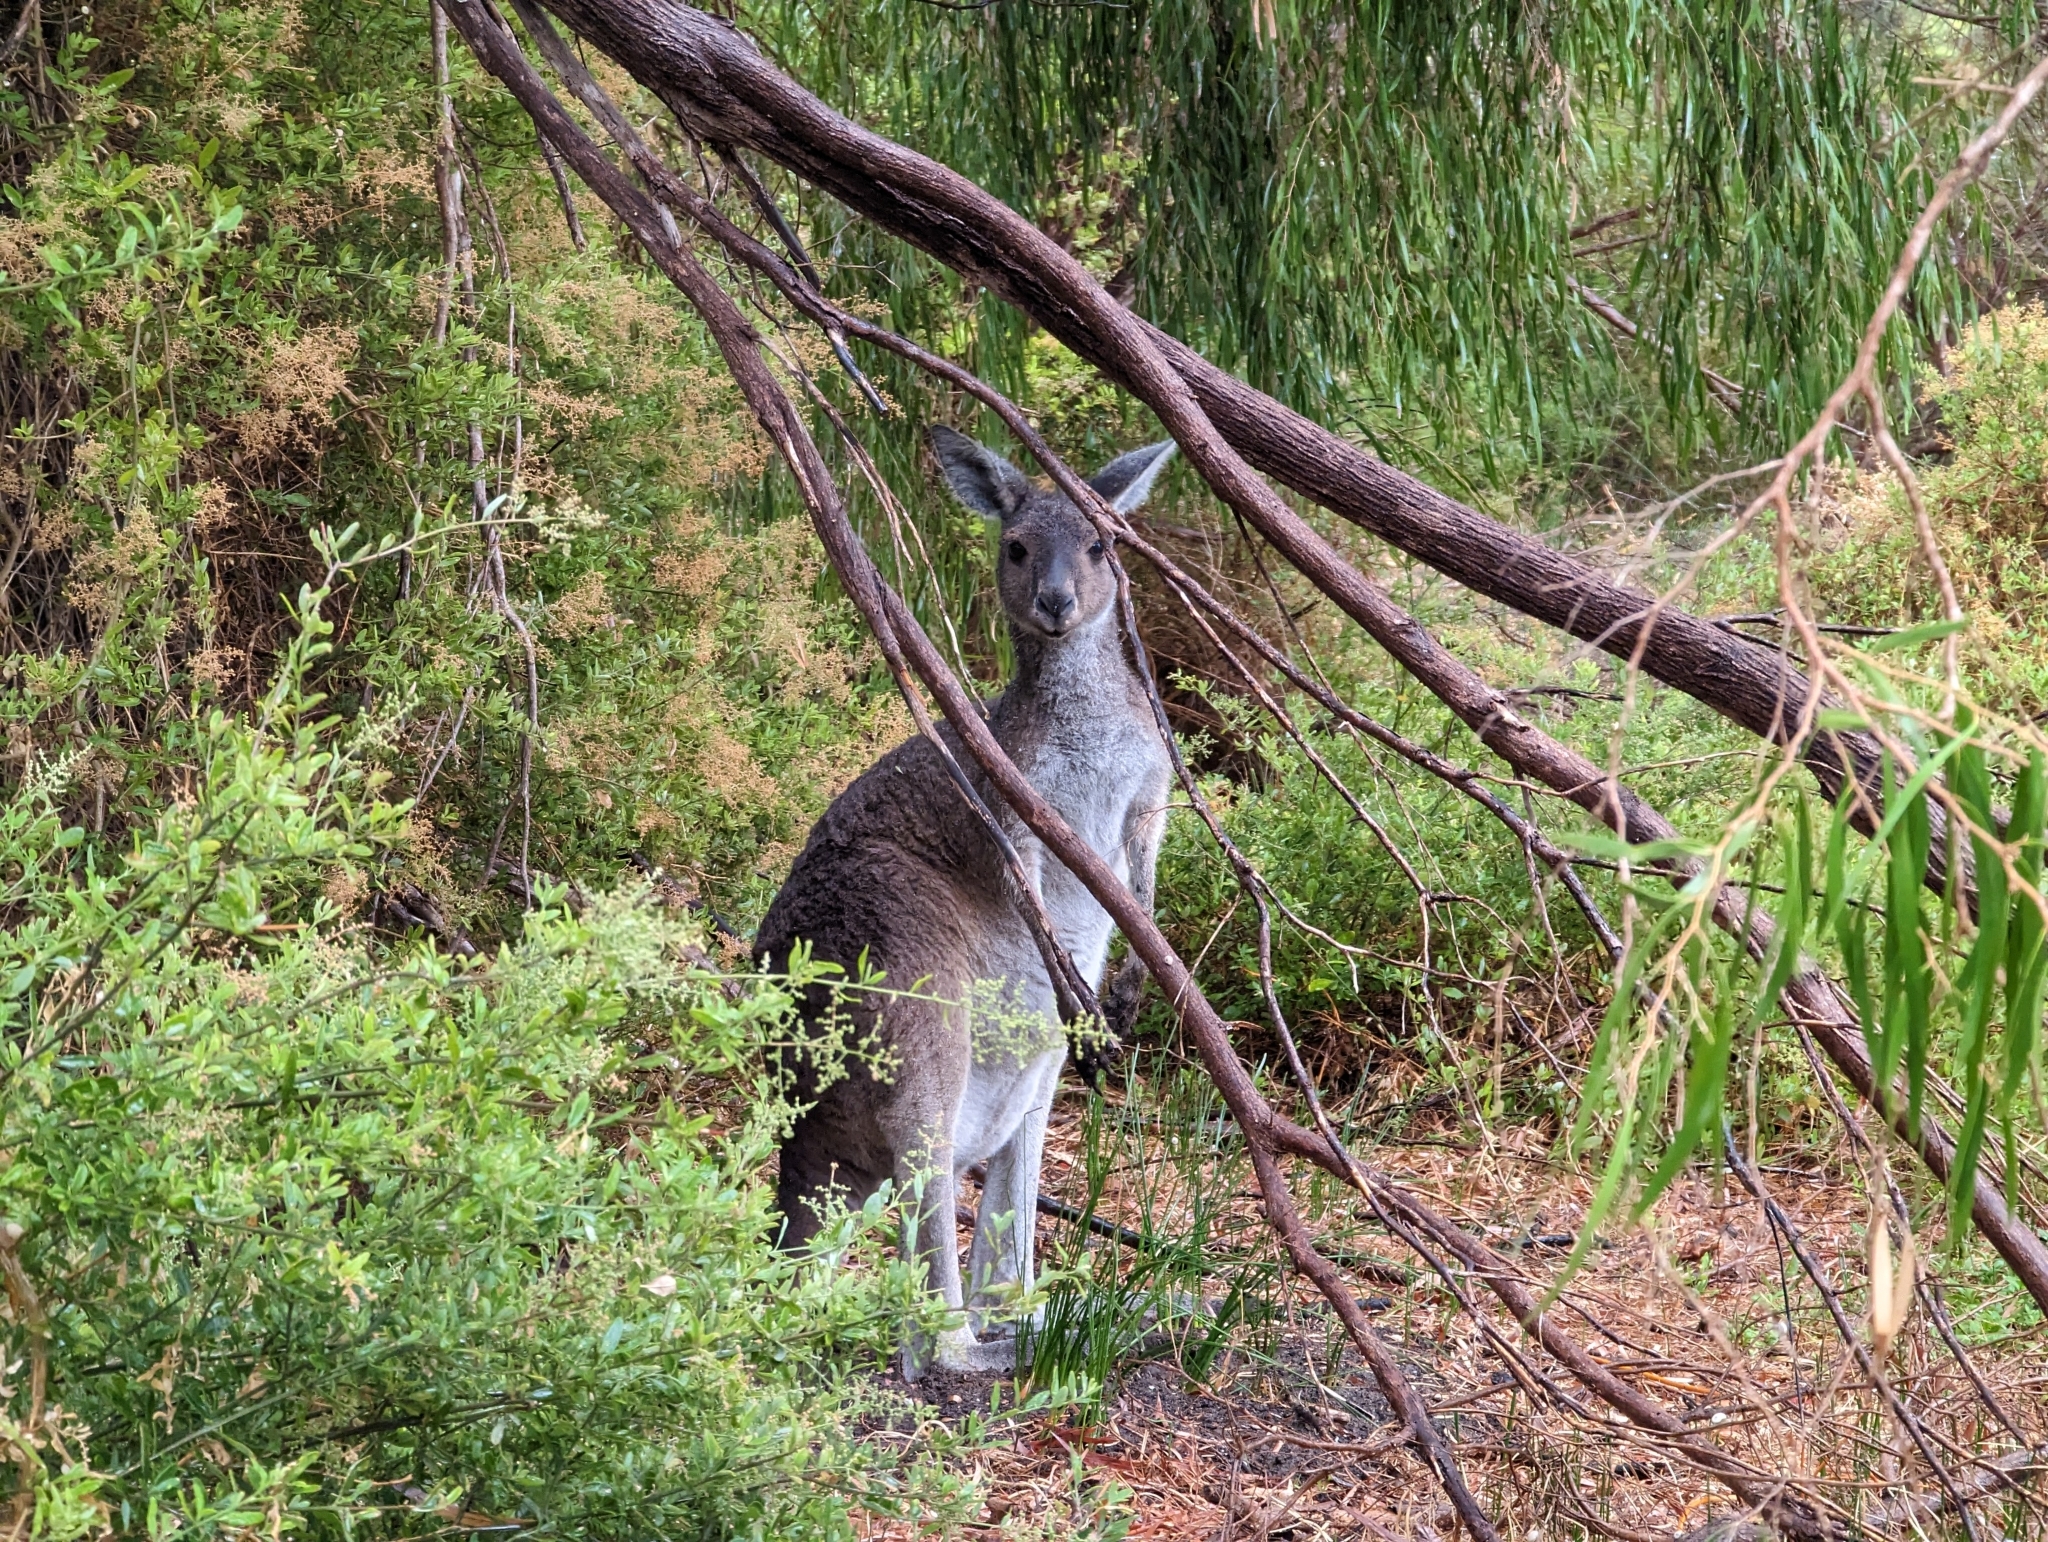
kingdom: Animalia
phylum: Chordata
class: Mammalia
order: Diprotodontia
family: Macropodidae
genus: Macropus
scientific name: Macropus fuliginosus
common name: Western grey kangaroo
